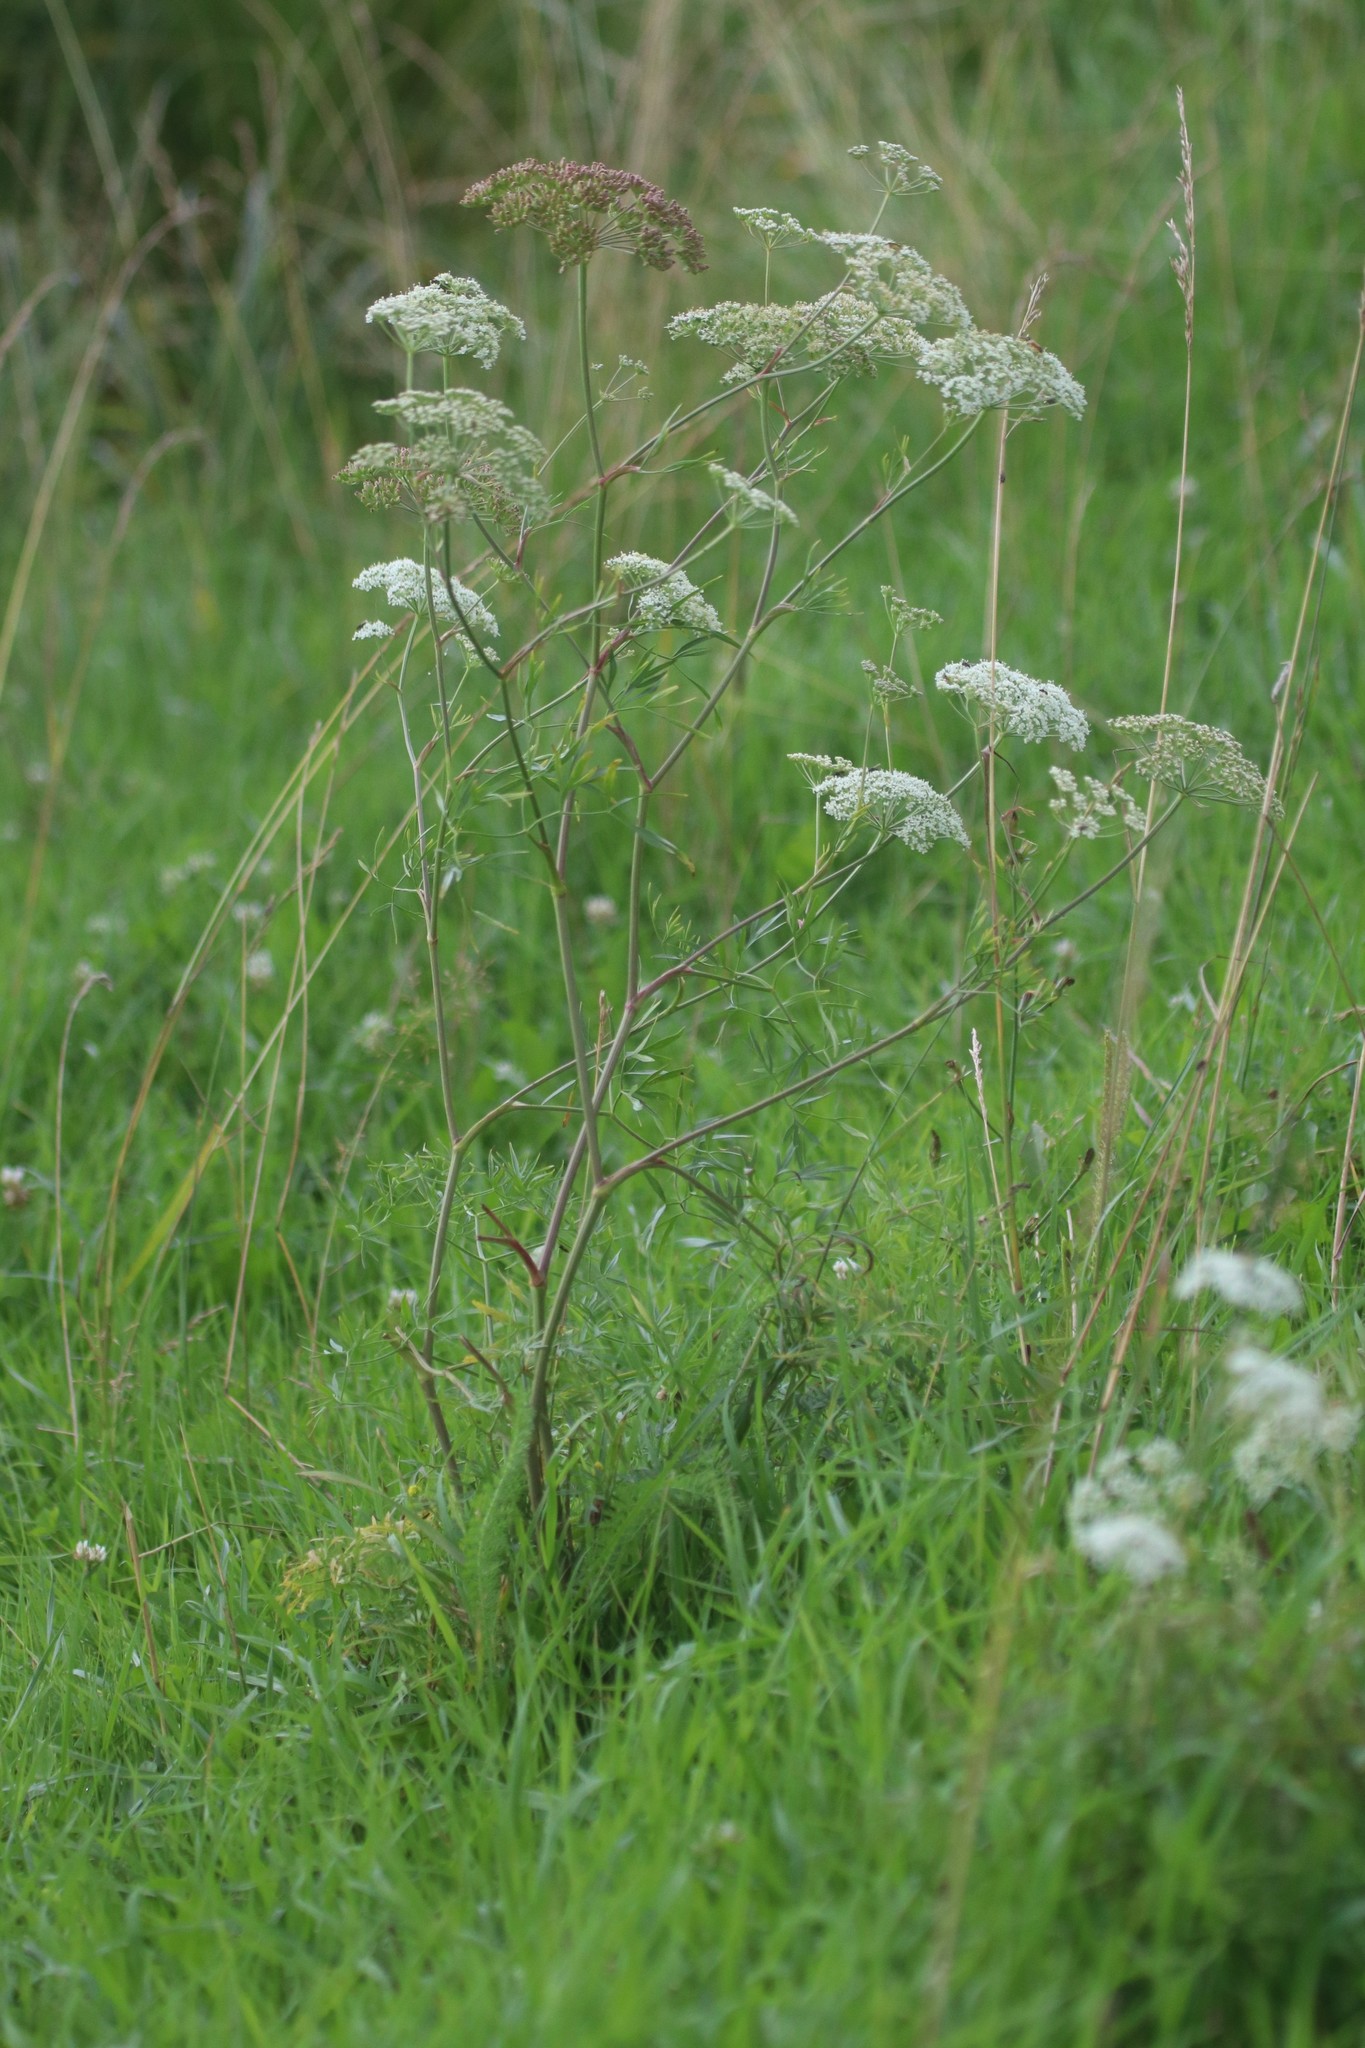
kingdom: Plantae
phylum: Tracheophyta
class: Magnoliopsida
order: Apiales
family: Apiaceae
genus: Cenolophium
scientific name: Cenolophium fischeri
